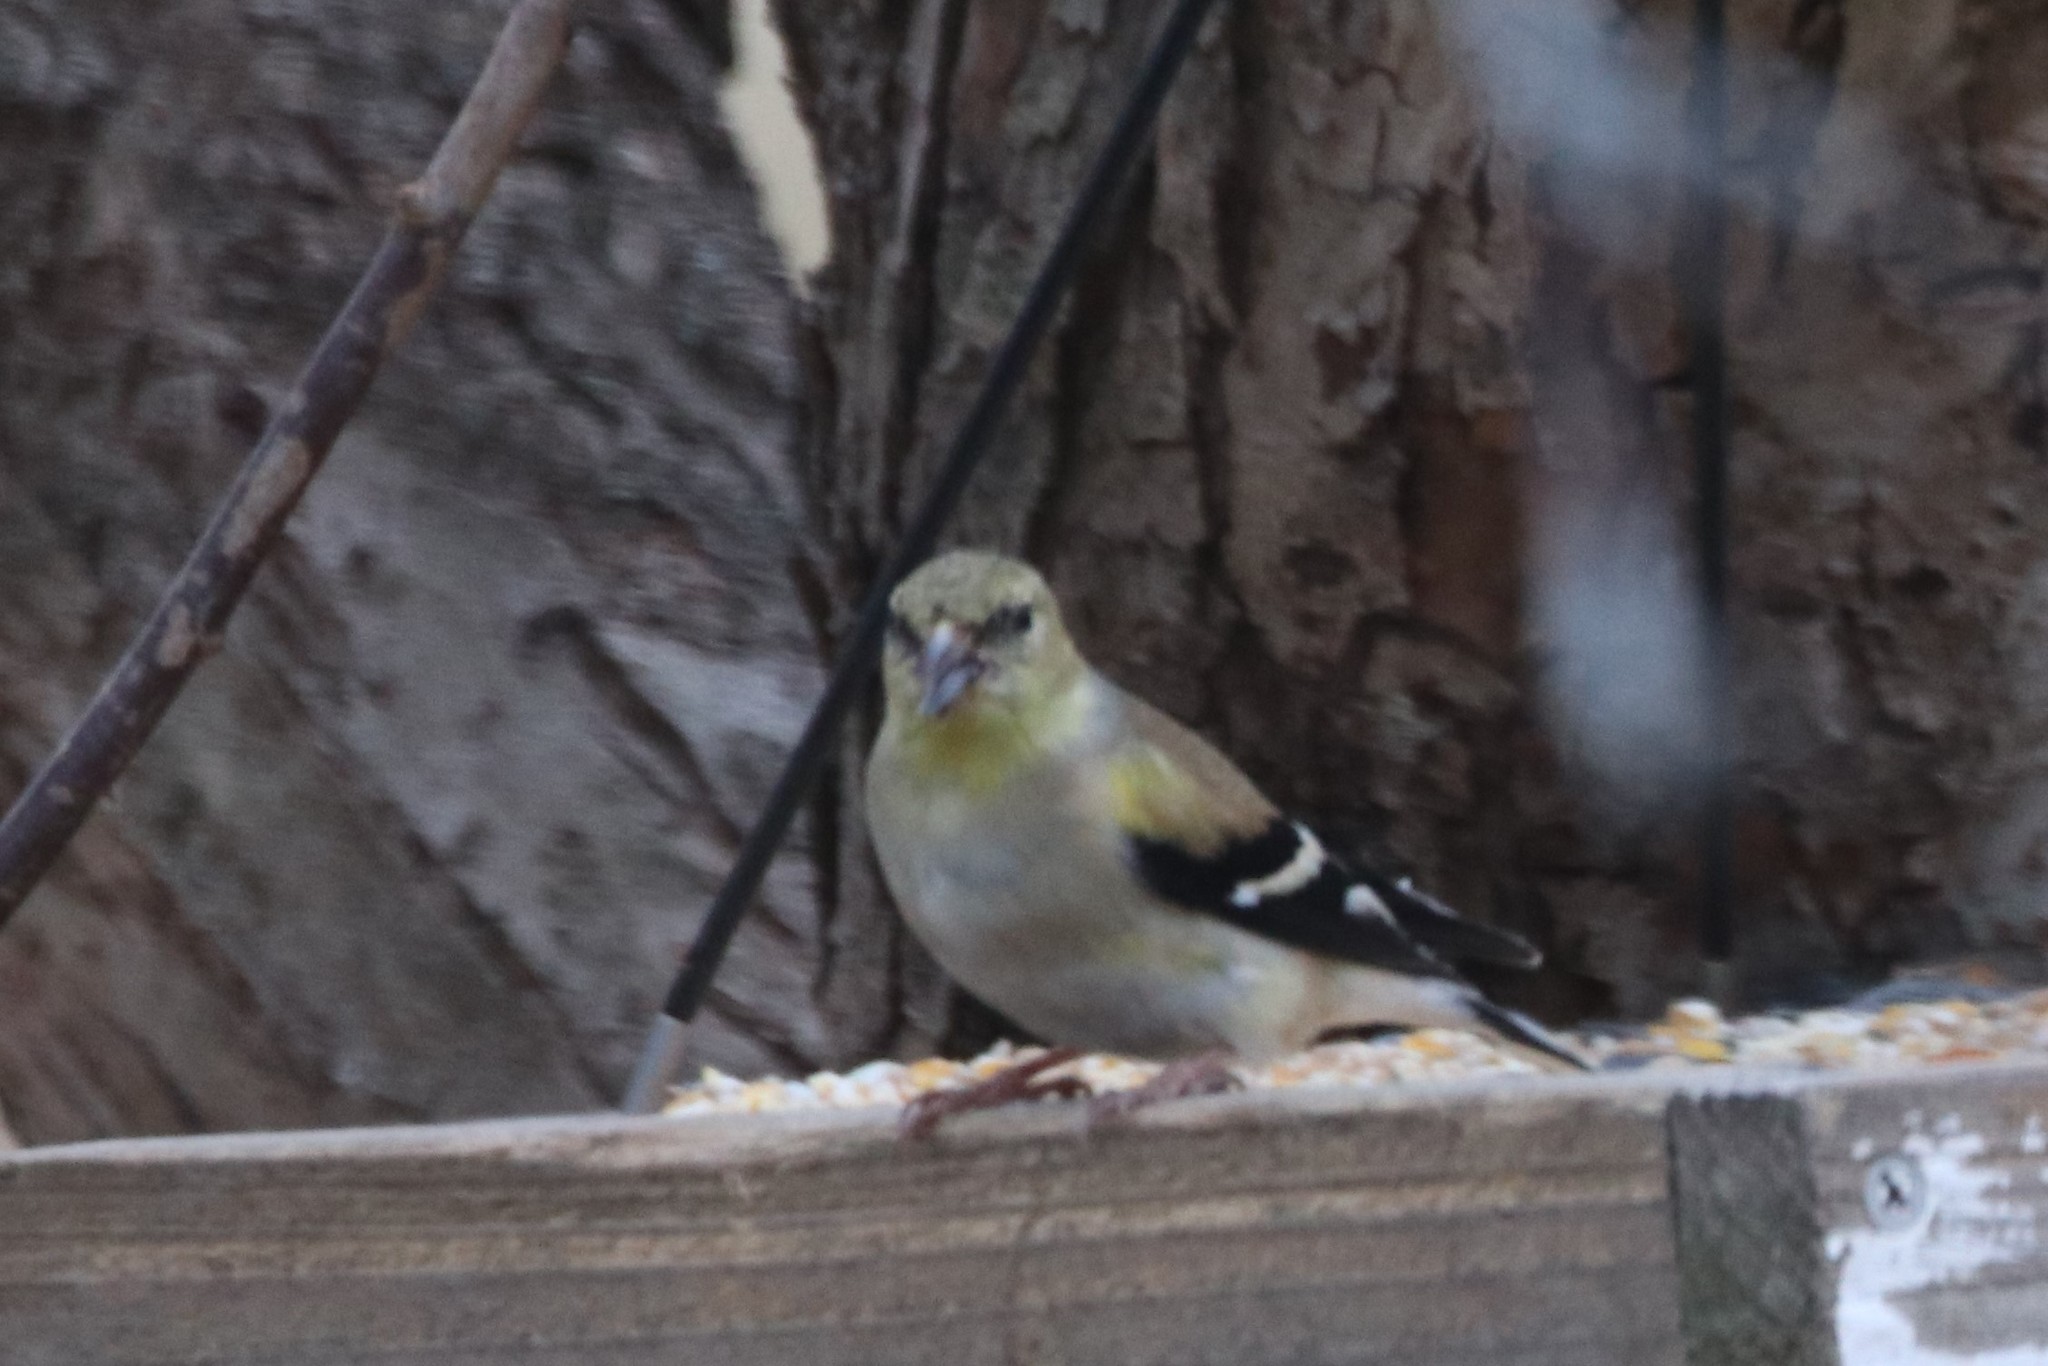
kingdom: Animalia
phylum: Chordata
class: Aves
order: Passeriformes
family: Fringillidae
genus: Spinus
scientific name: Spinus tristis
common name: American goldfinch
